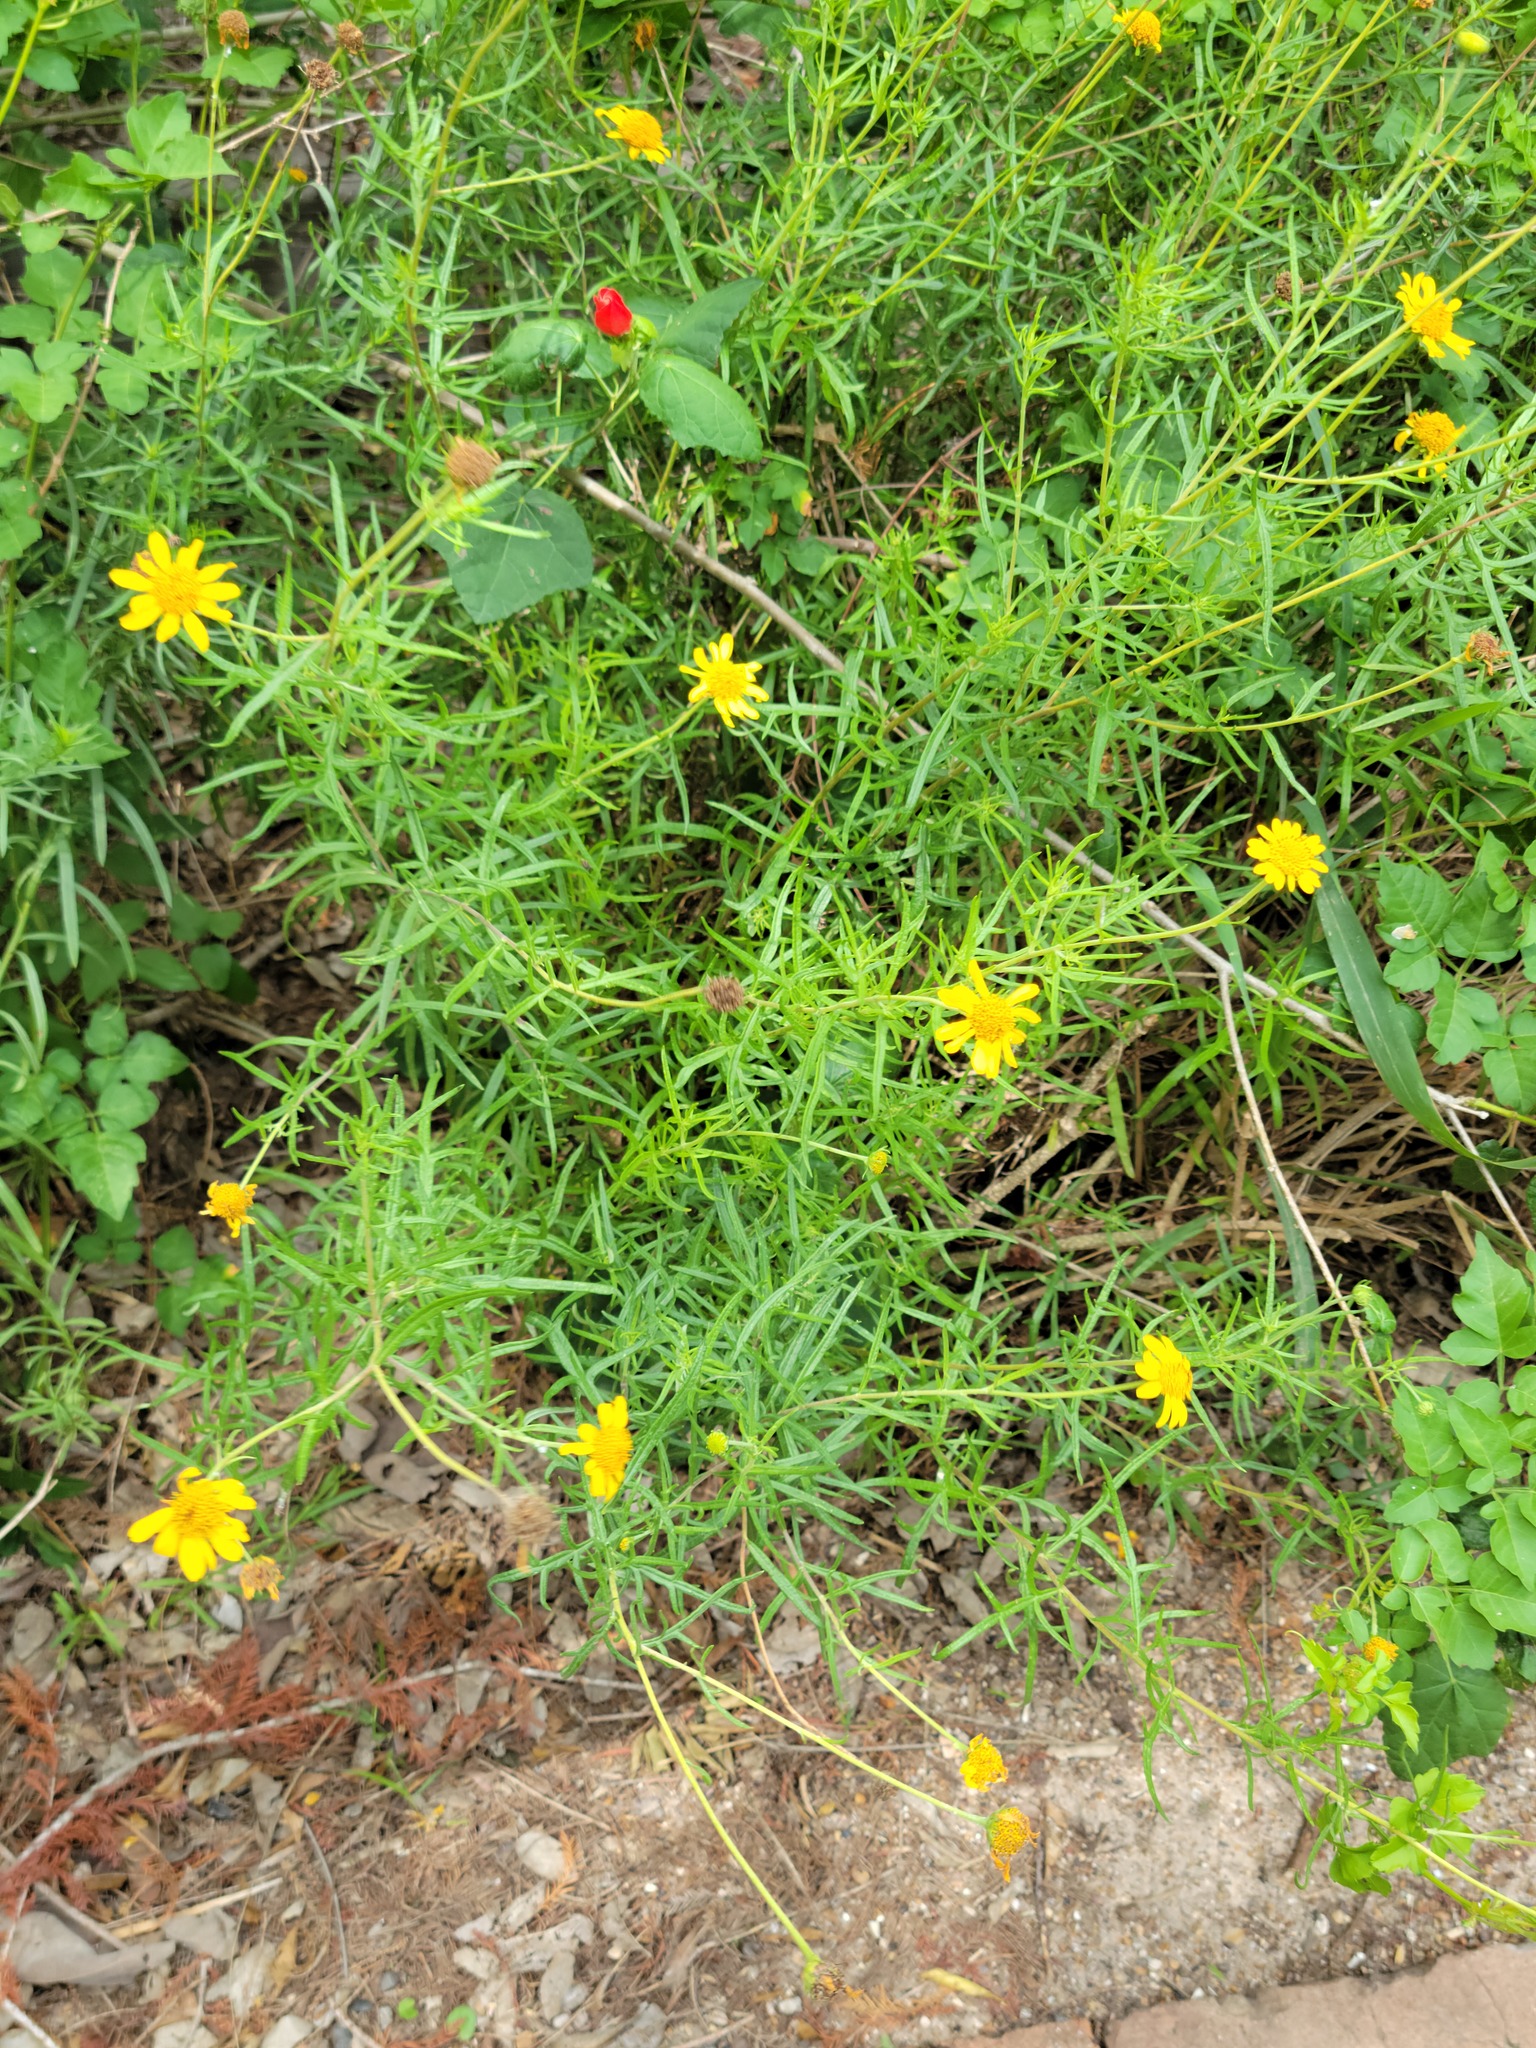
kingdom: Plantae
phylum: Tracheophyta
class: Magnoliopsida
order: Asterales
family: Asteraceae
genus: Sidneya
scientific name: Sidneya tenuifolia
